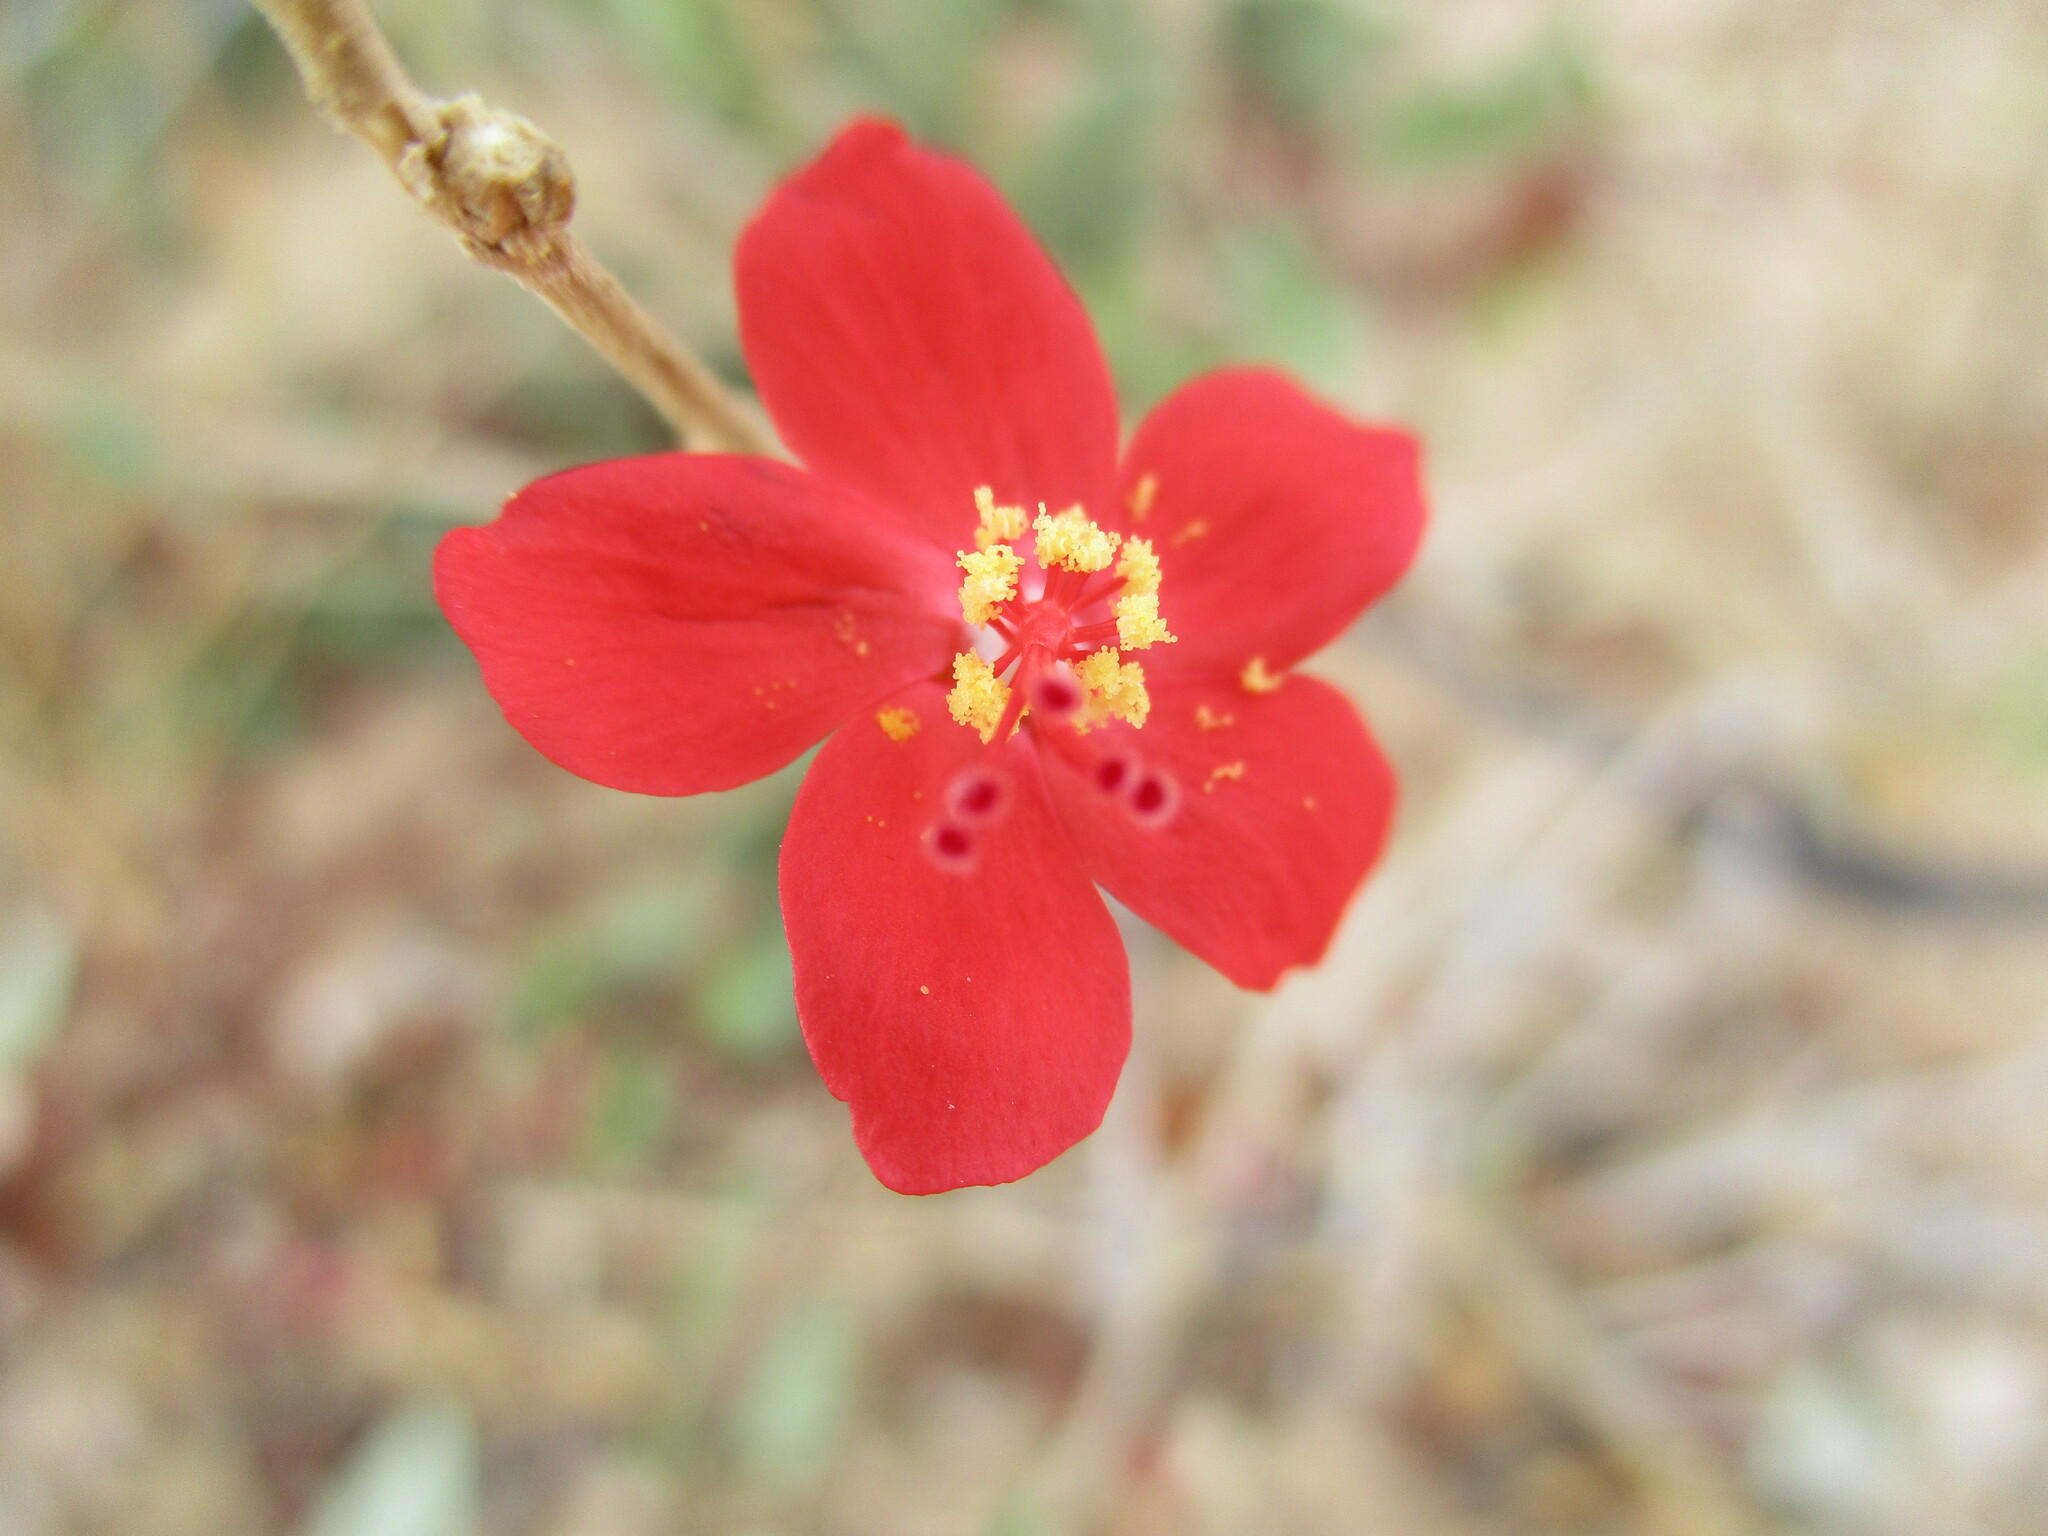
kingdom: Plantae
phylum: Tracheophyta
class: Magnoliopsida
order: Malvales
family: Malvaceae
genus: Hibiscus
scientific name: Hibiscus elliottiae
